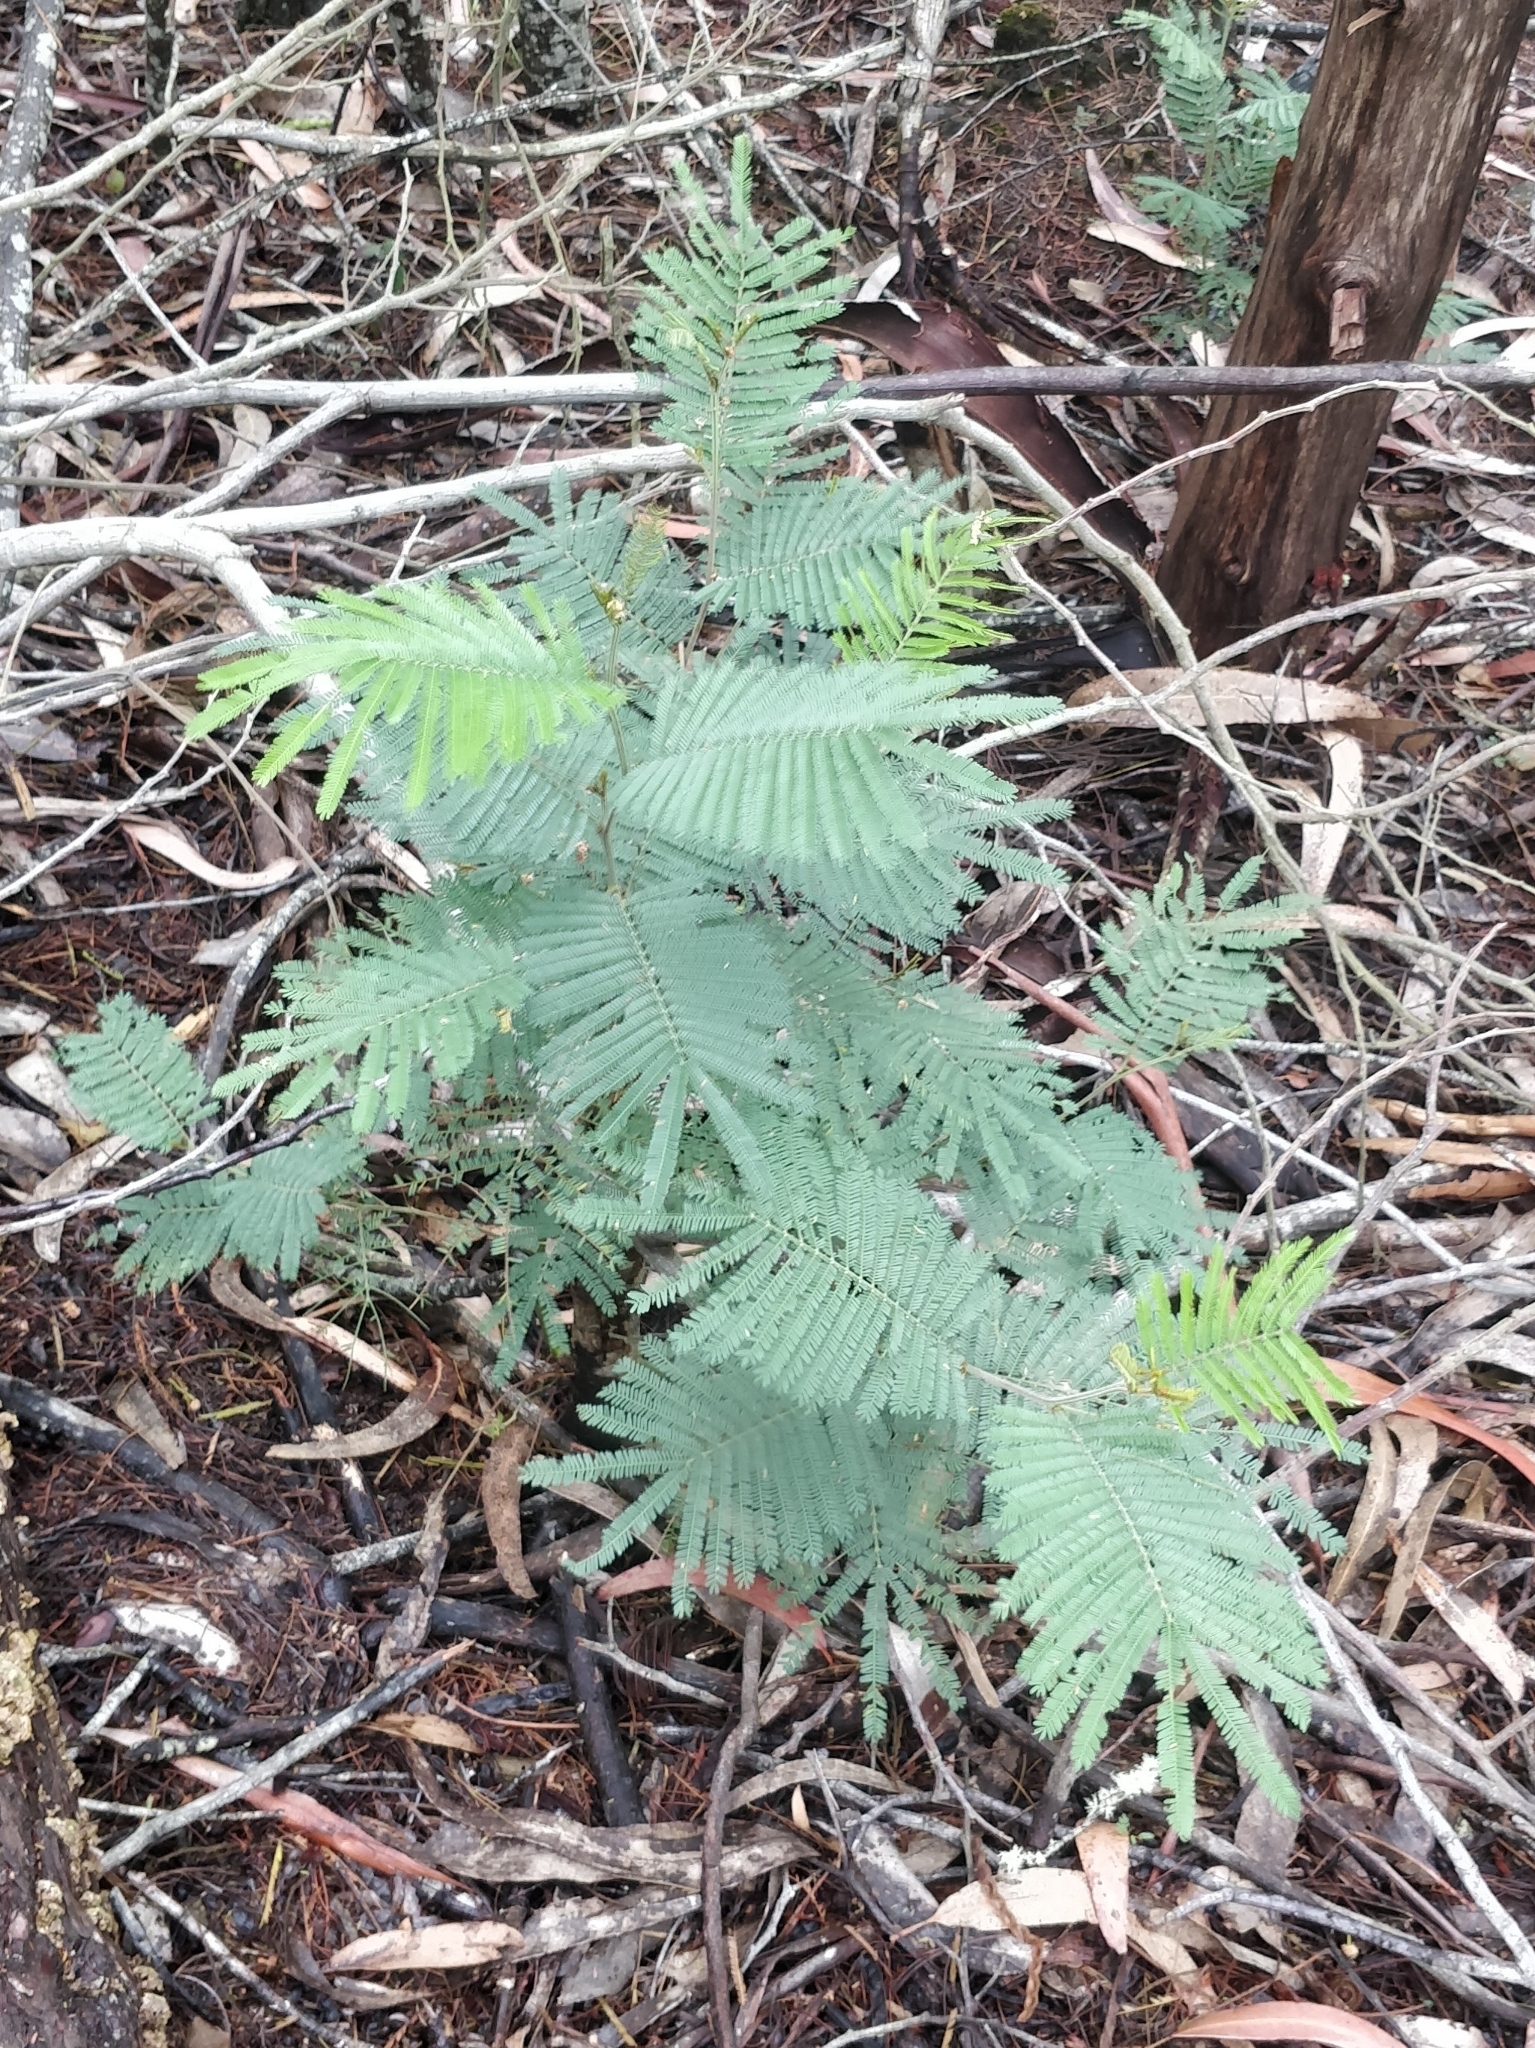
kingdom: Plantae
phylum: Tracheophyta
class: Magnoliopsida
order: Fabales
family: Fabaceae
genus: Acacia
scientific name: Acacia mearnsii
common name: Black wattle
